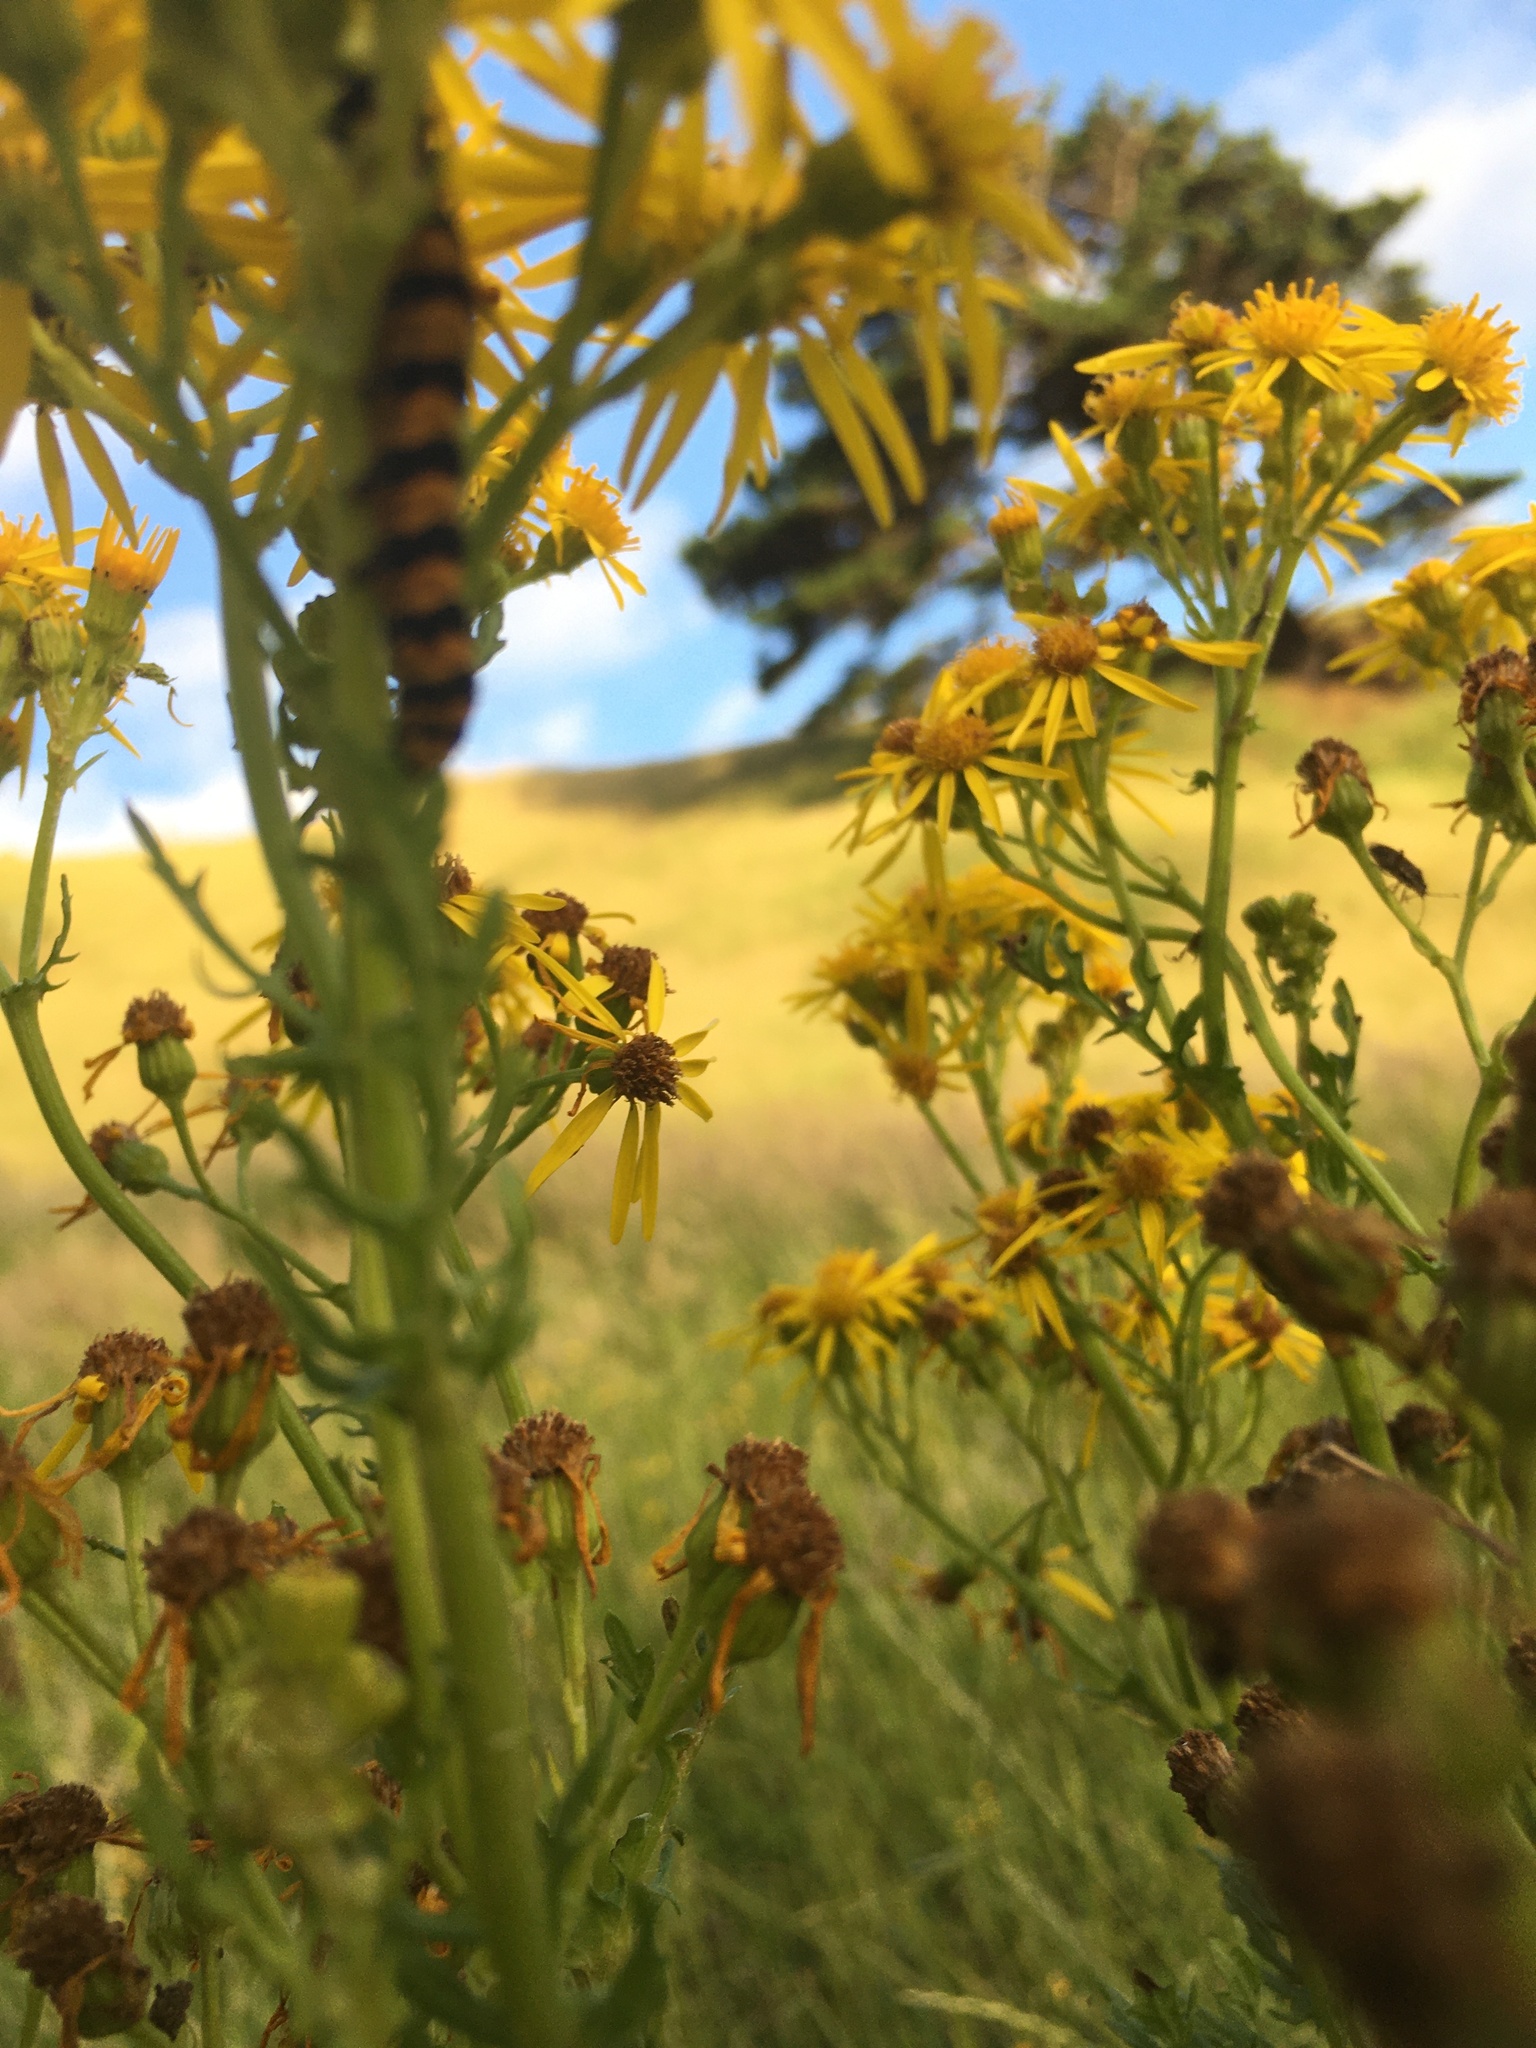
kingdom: Animalia
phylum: Arthropoda
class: Insecta
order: Lepidoptera
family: Erebidae
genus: Tyria
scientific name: Tyria jacobaeae
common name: Cinnabar
